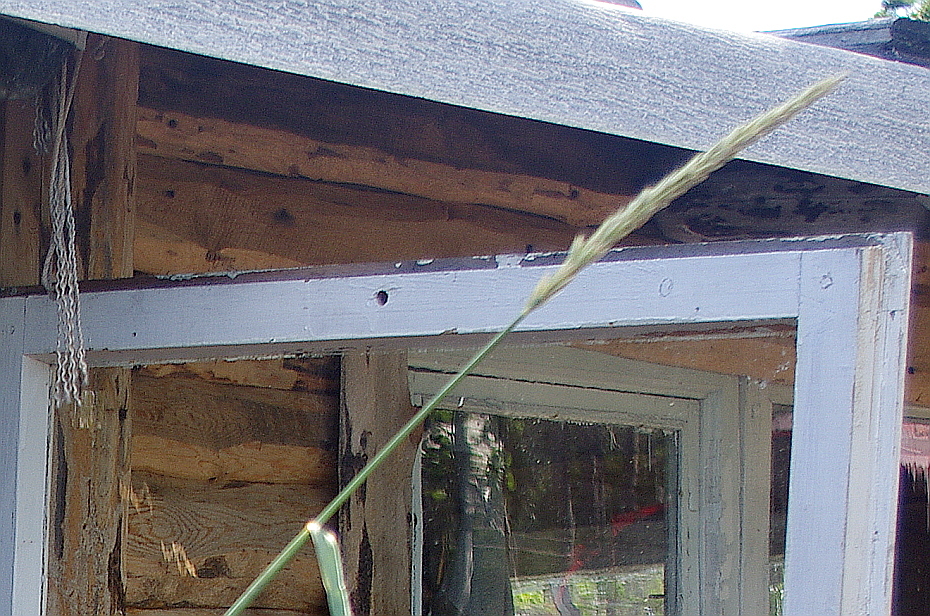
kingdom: Plantae
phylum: Tracheophyta
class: Liliopsida
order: Poales
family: Poaceae
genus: Leymus
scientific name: Leymus arenarius
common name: Lyme-grass
